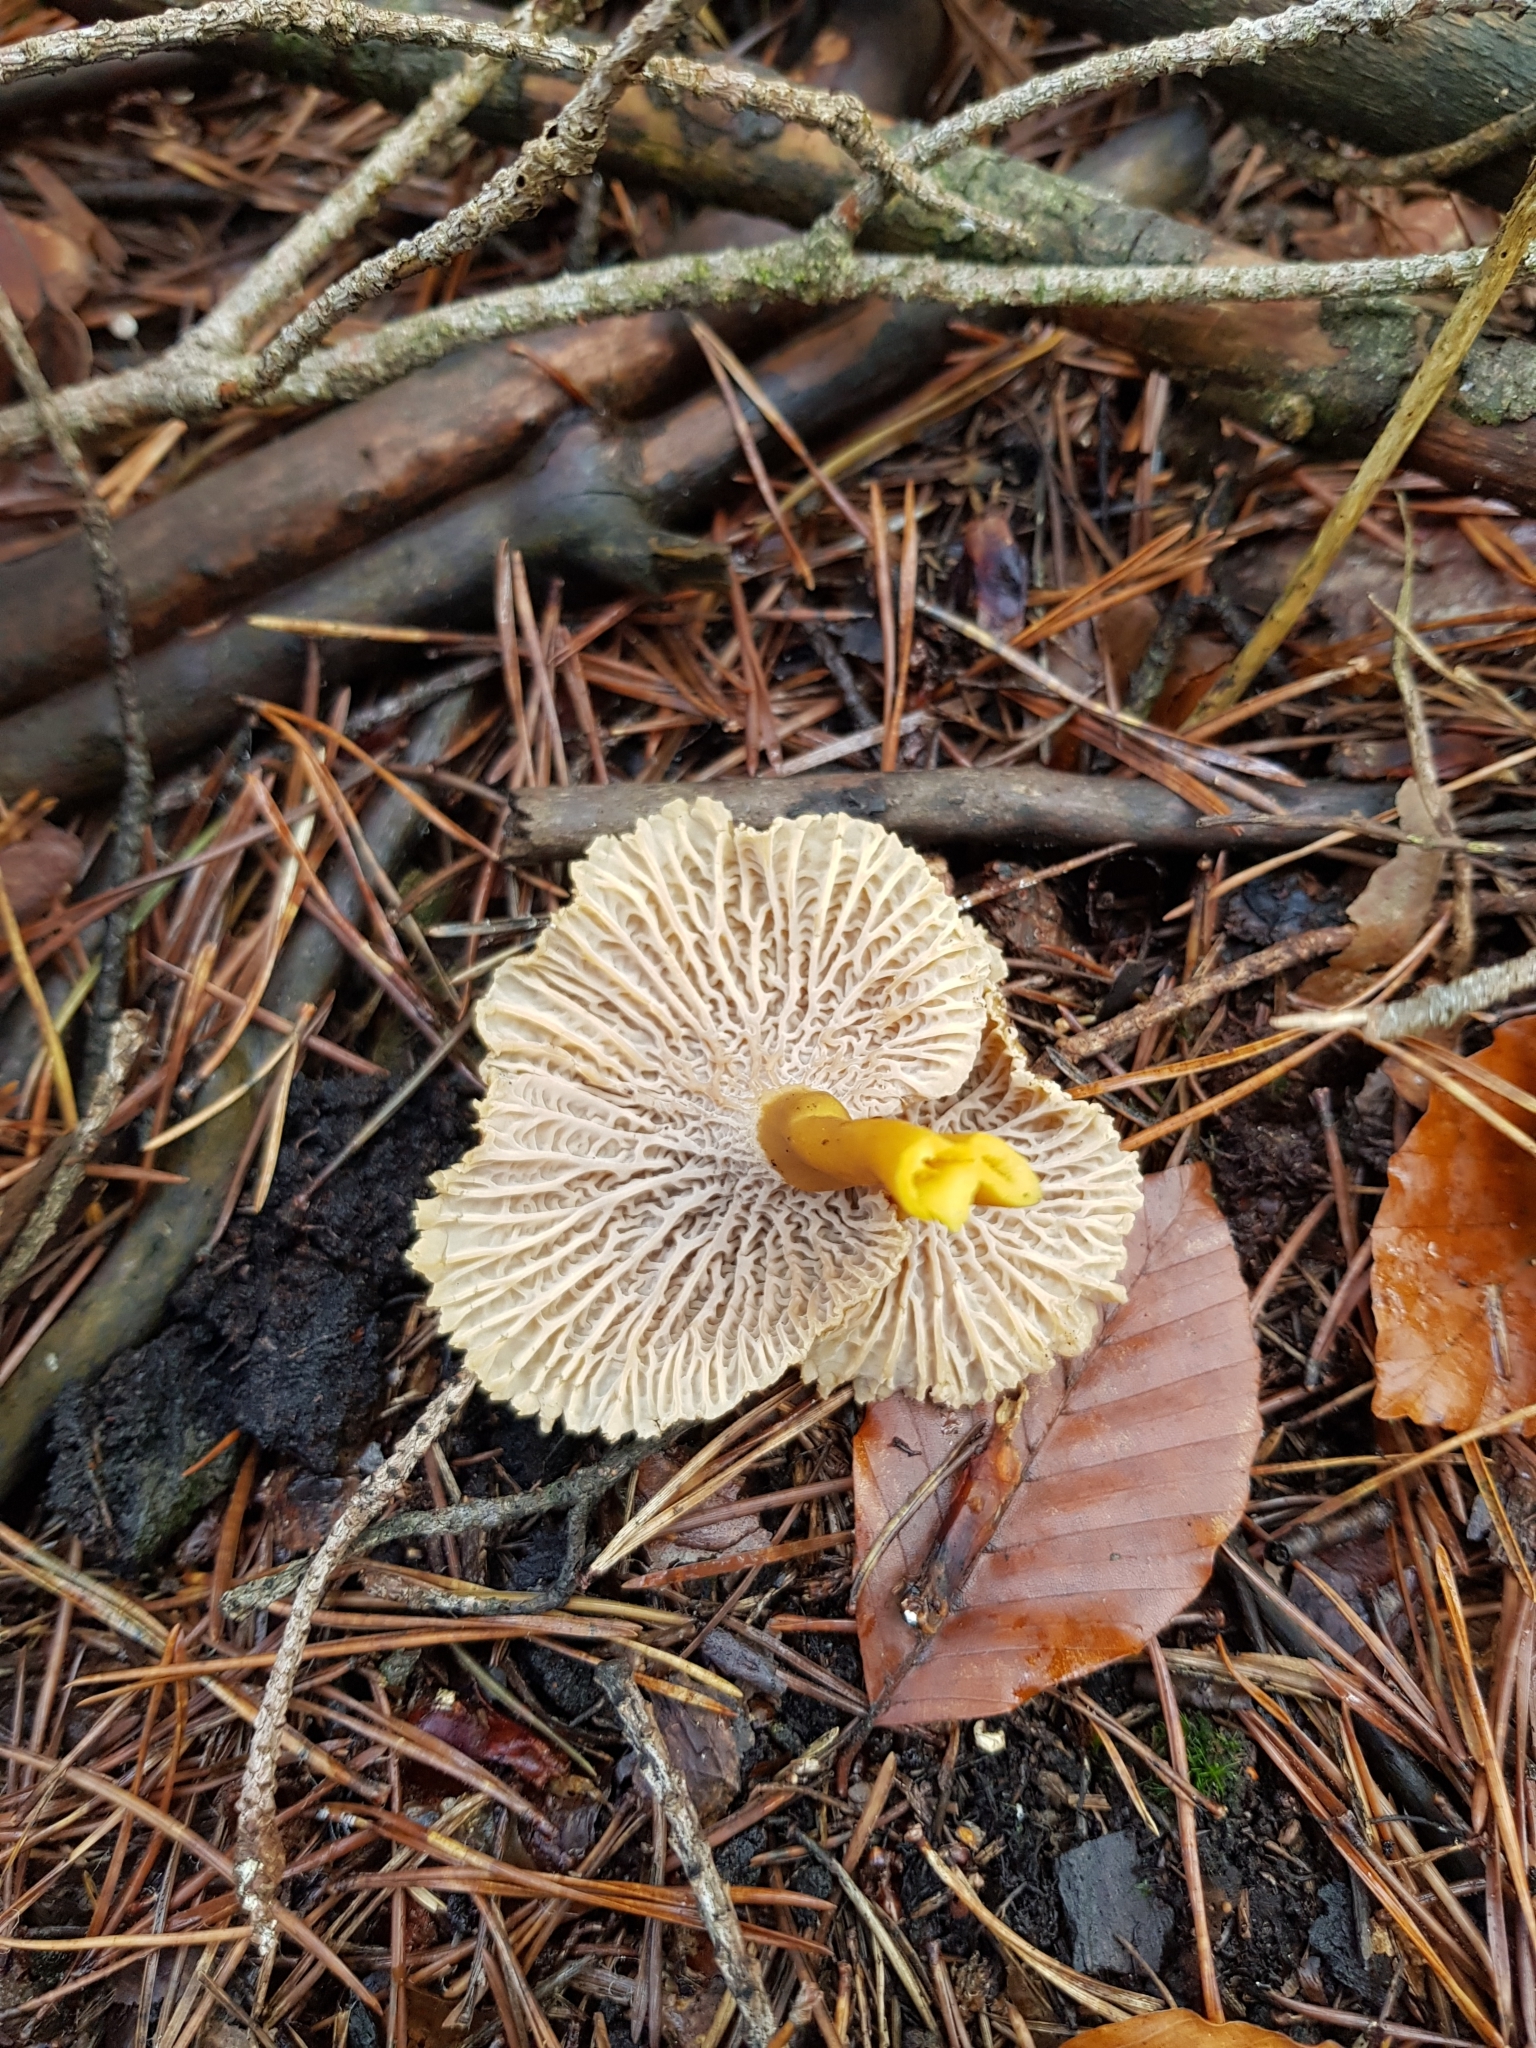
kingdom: Fungi
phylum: Basidiomycota
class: Agaricomycetes
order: Cantharellales
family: Hydnaceae
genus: Craterellus
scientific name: Craterellus tubaeformis
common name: Yellowfoot
